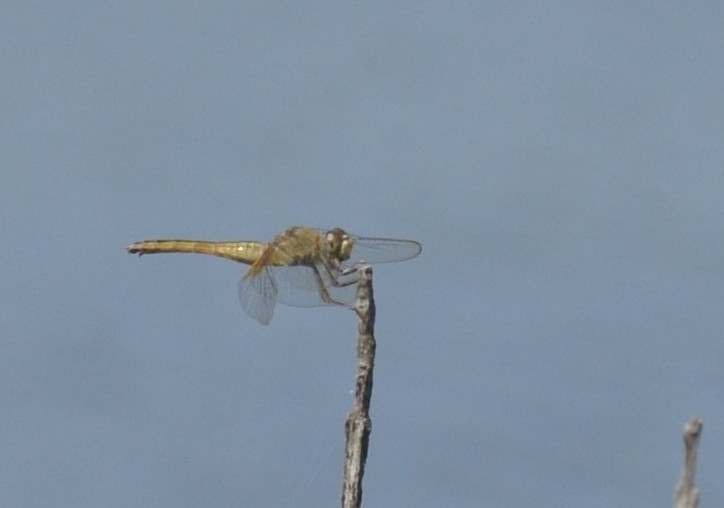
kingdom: Animalia
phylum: Arthropoda
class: Insecta
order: Odonata
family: Libellulidae
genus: Crocothemis
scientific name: Crocothemis servilia
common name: Scarlet skimmer
